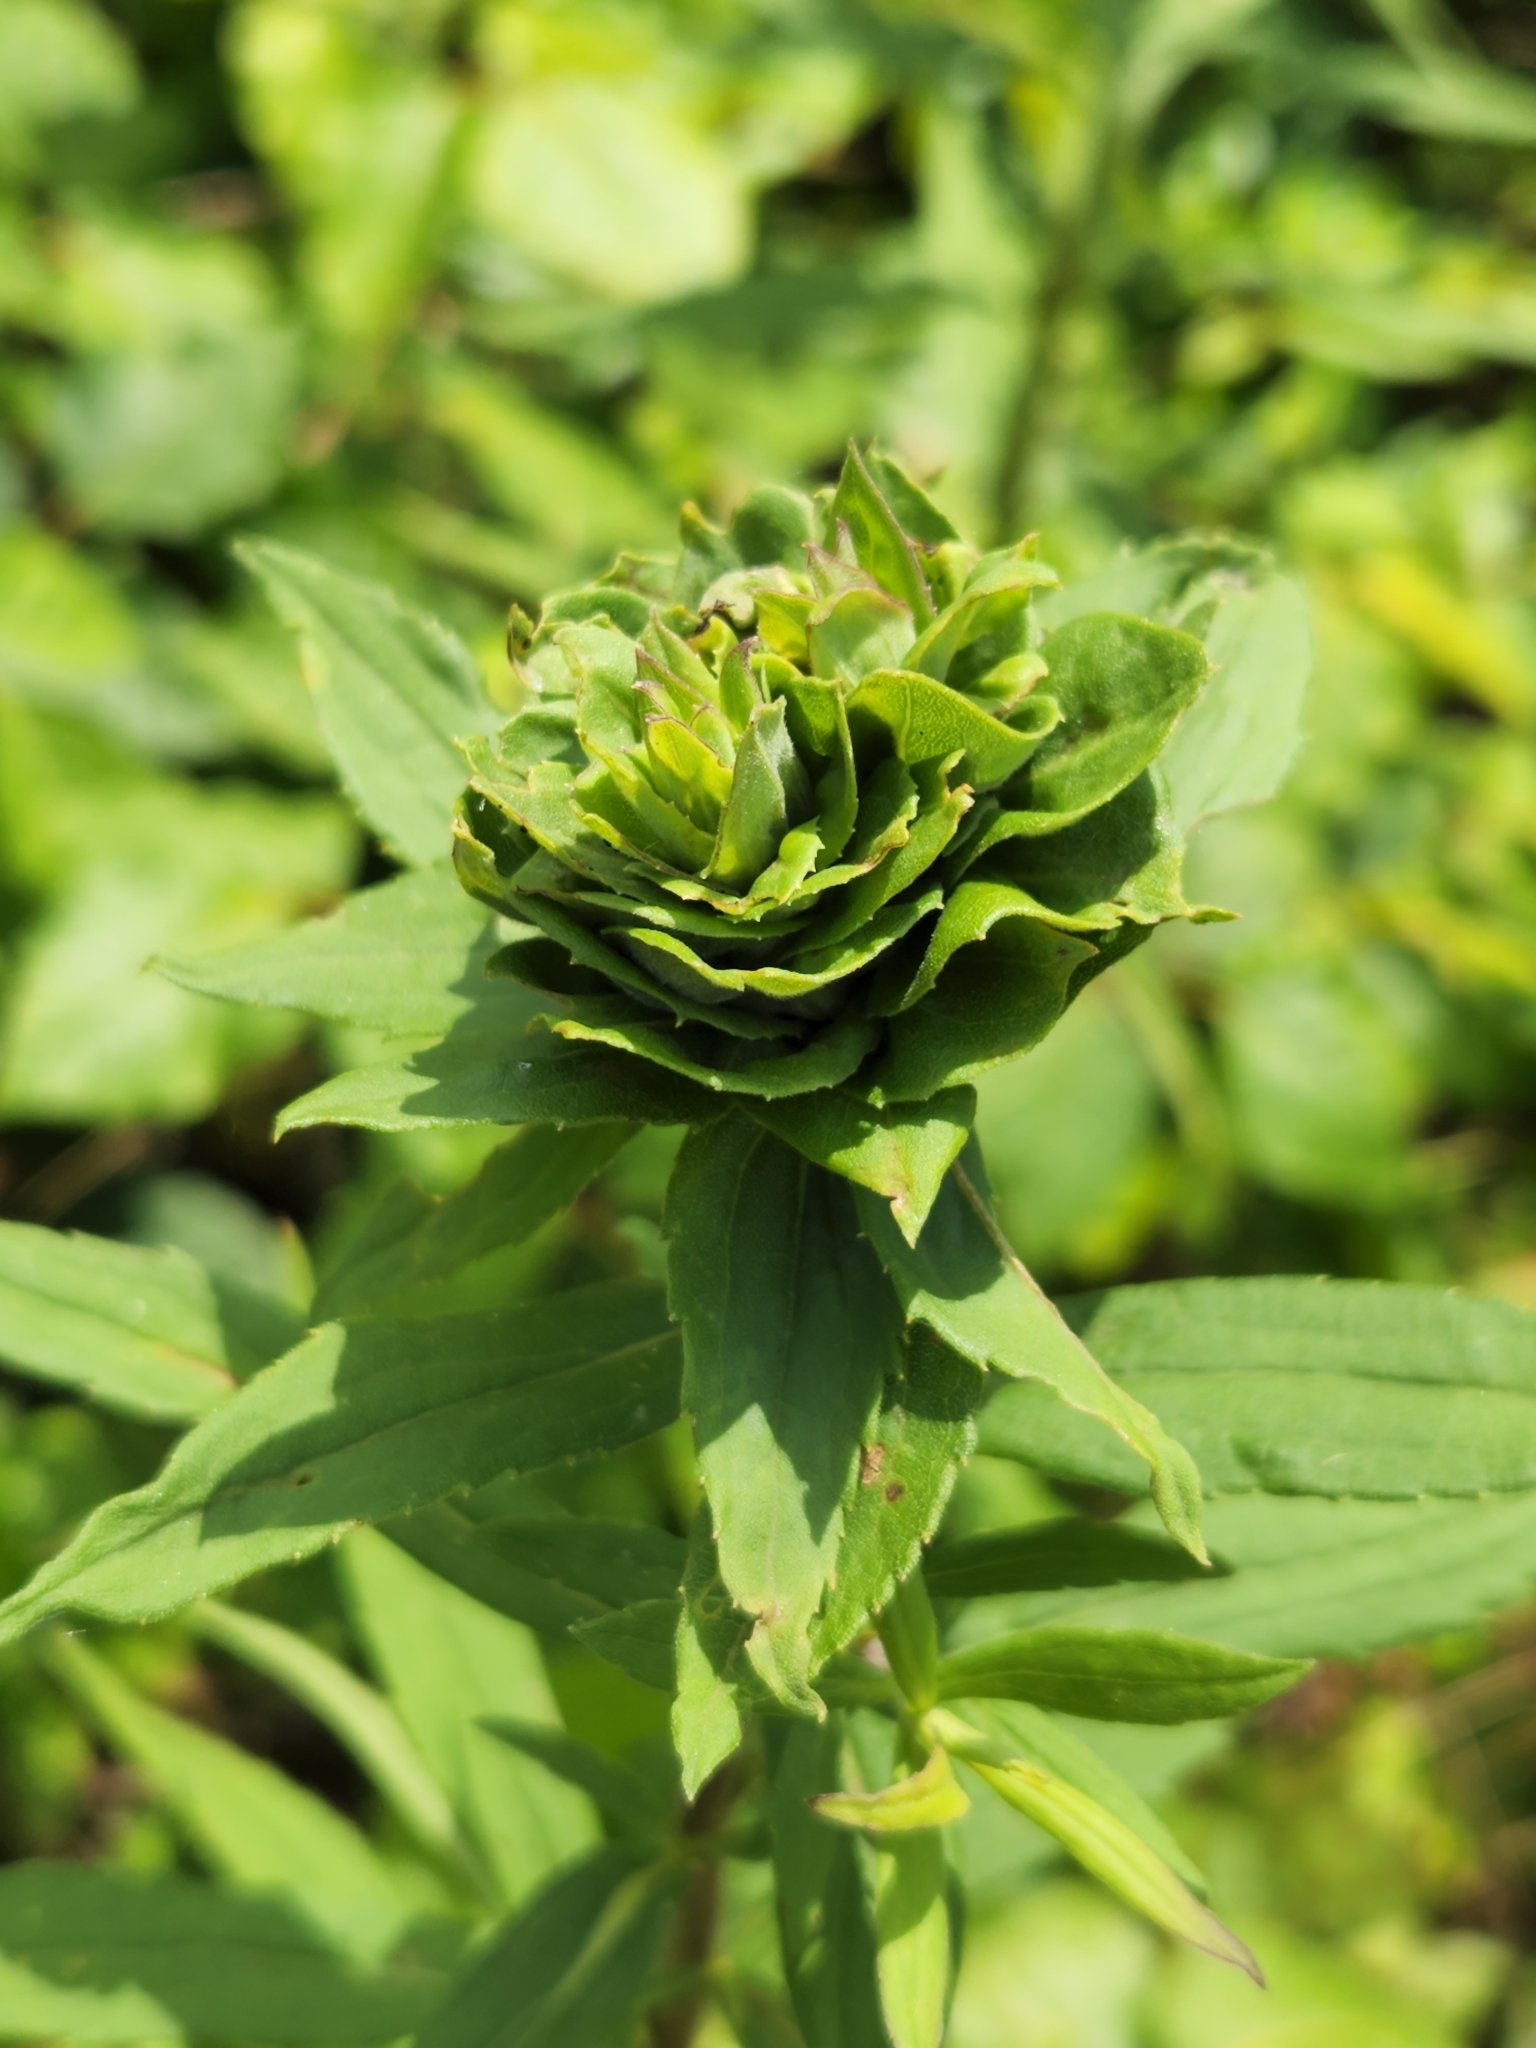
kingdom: Animalia
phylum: Arthropoda
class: Insecta
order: Diptera
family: Cecidomyiidae
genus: Rhopalomyia
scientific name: Rhopalomyia solidaginis
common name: Goldenrod bunch gall midge
